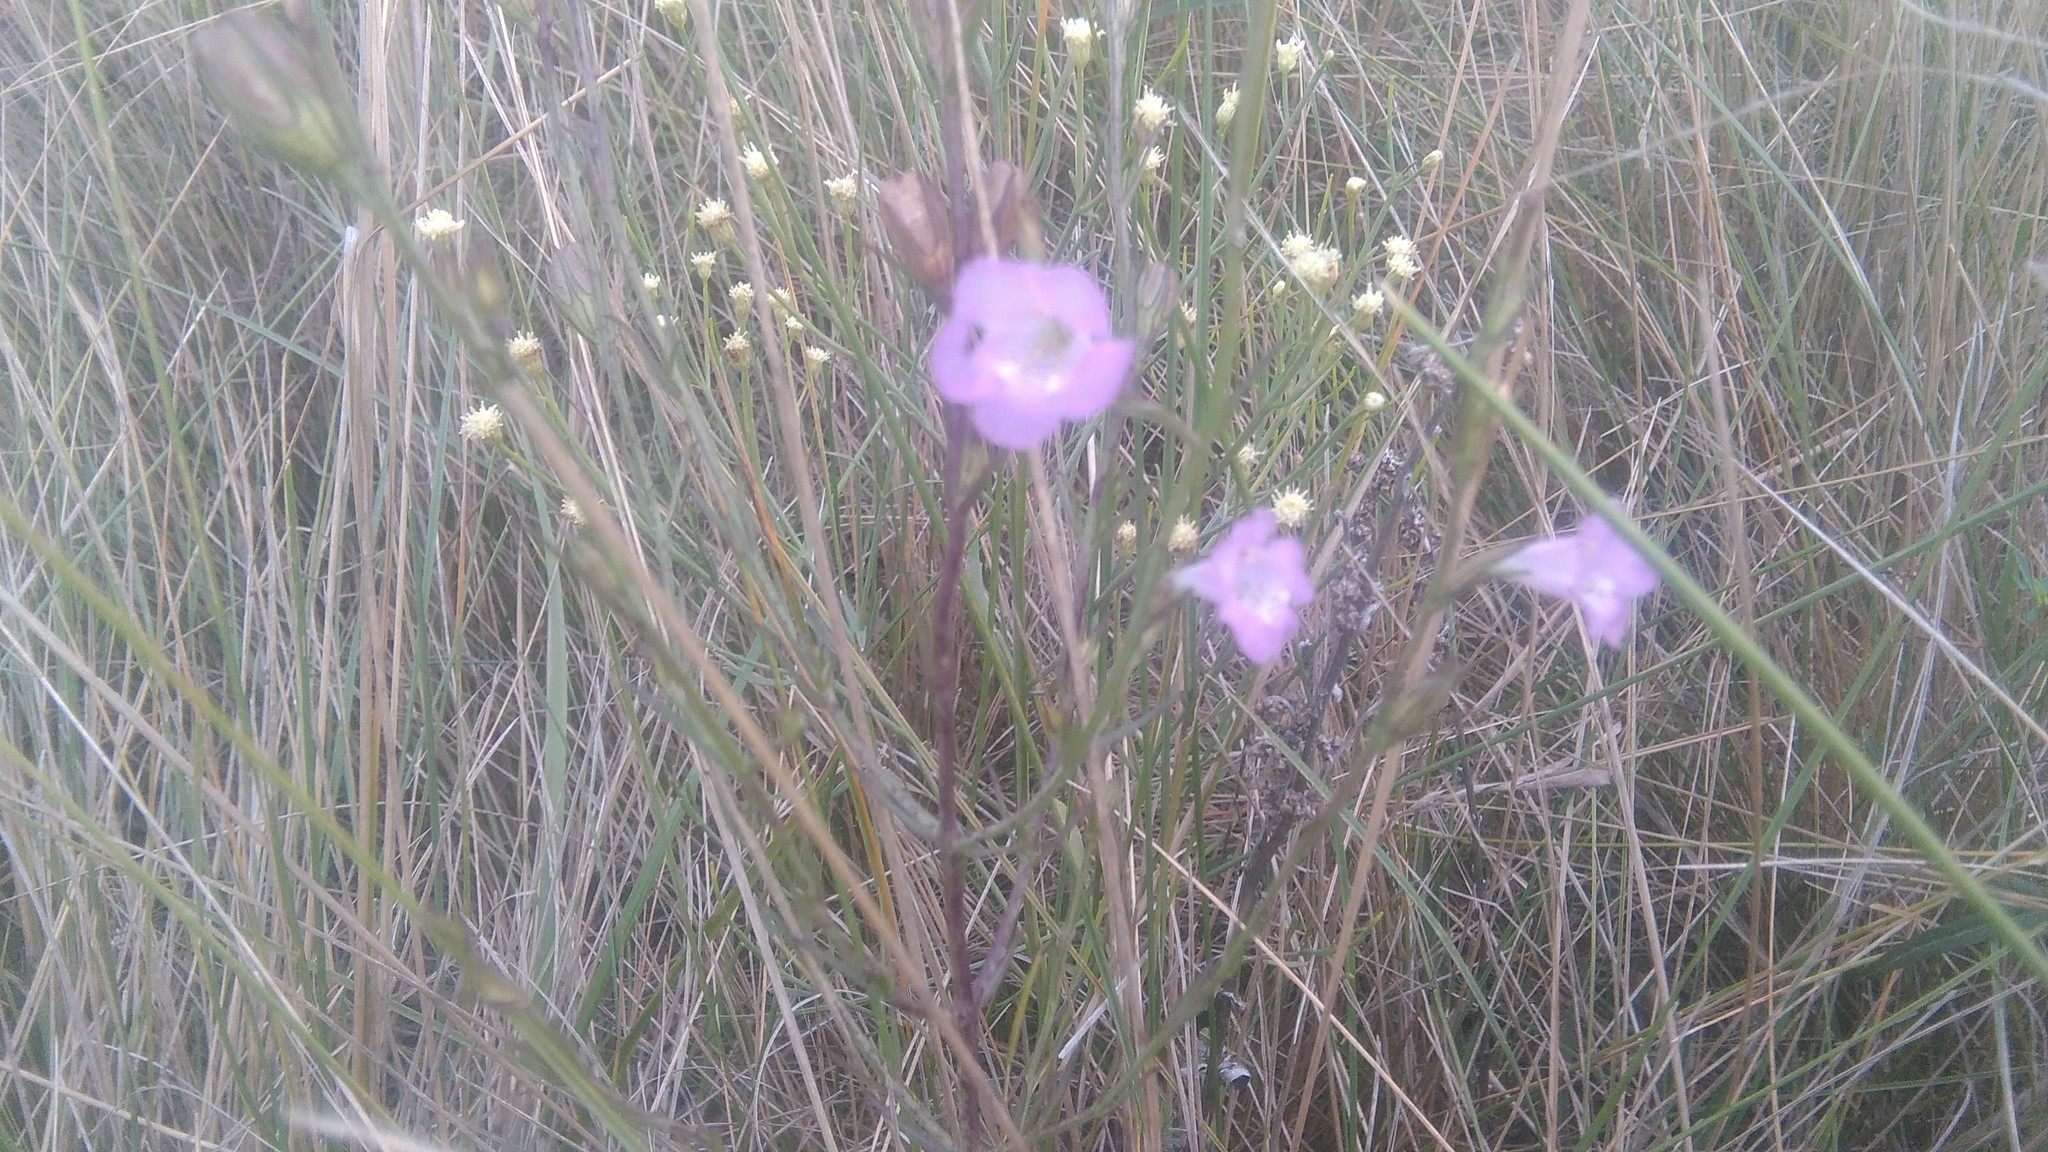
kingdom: Plantae
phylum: Tracheophyta
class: Magnoliopsida
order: Lamiales
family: Orobanchaceae
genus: Agalinis
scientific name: Agalinis communis
